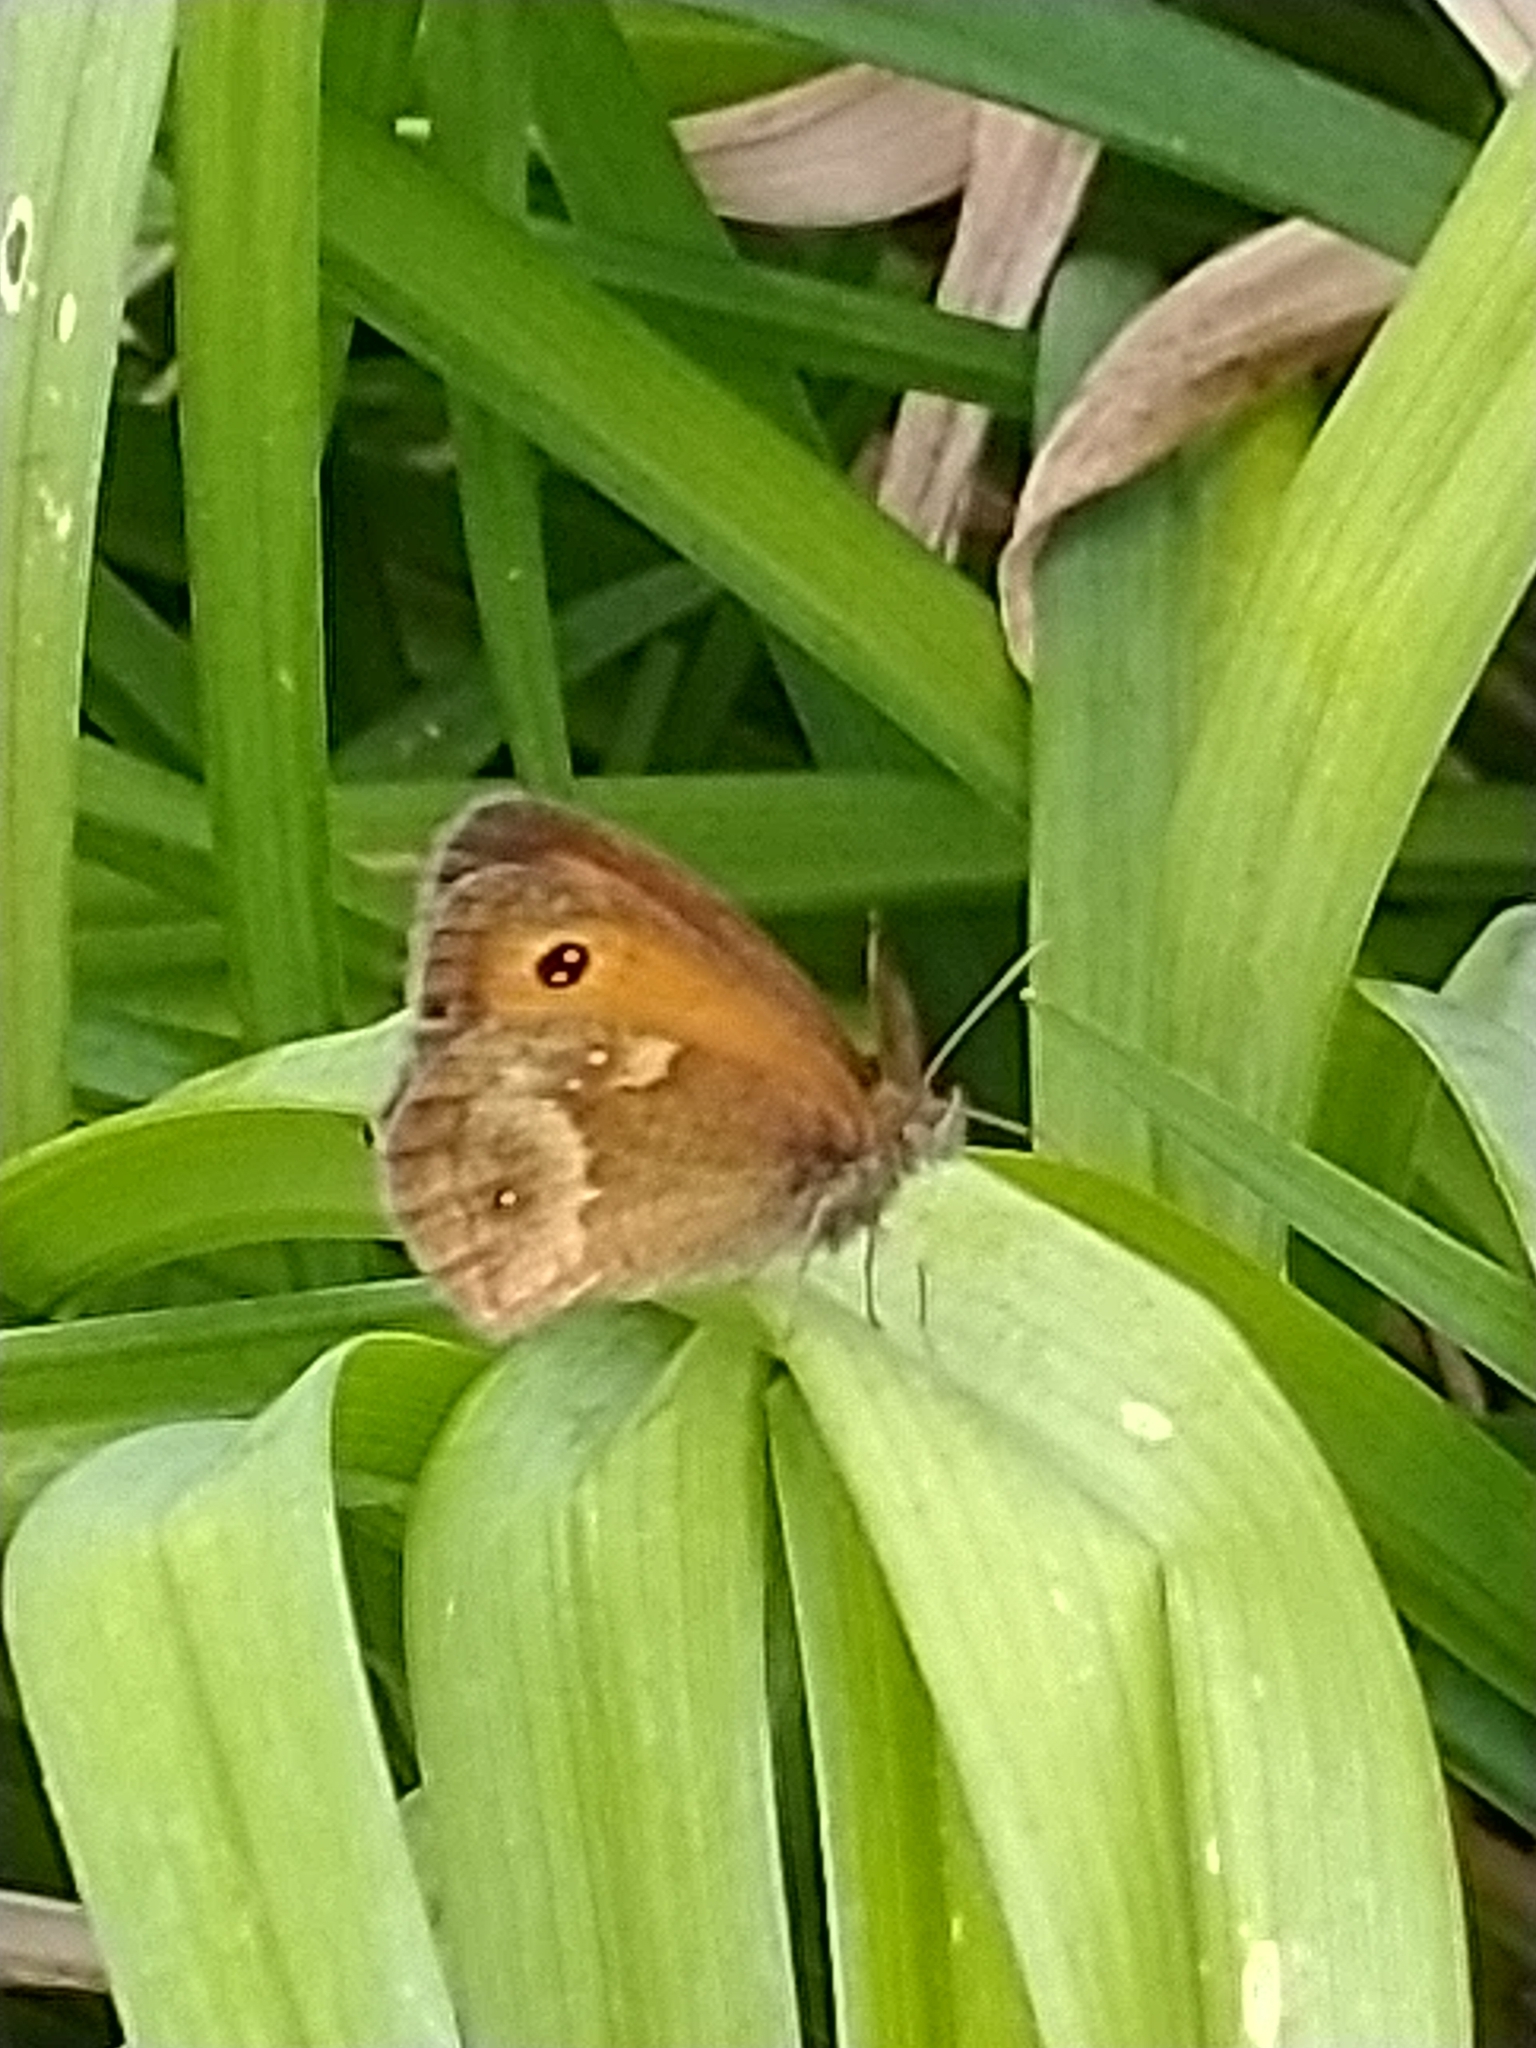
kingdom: Animalia
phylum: Arthropoda
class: Insecta
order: Lepidoptera
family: Nymphalidae
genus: Pyronia
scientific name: Pyronia tithonus
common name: Gatekeeper
